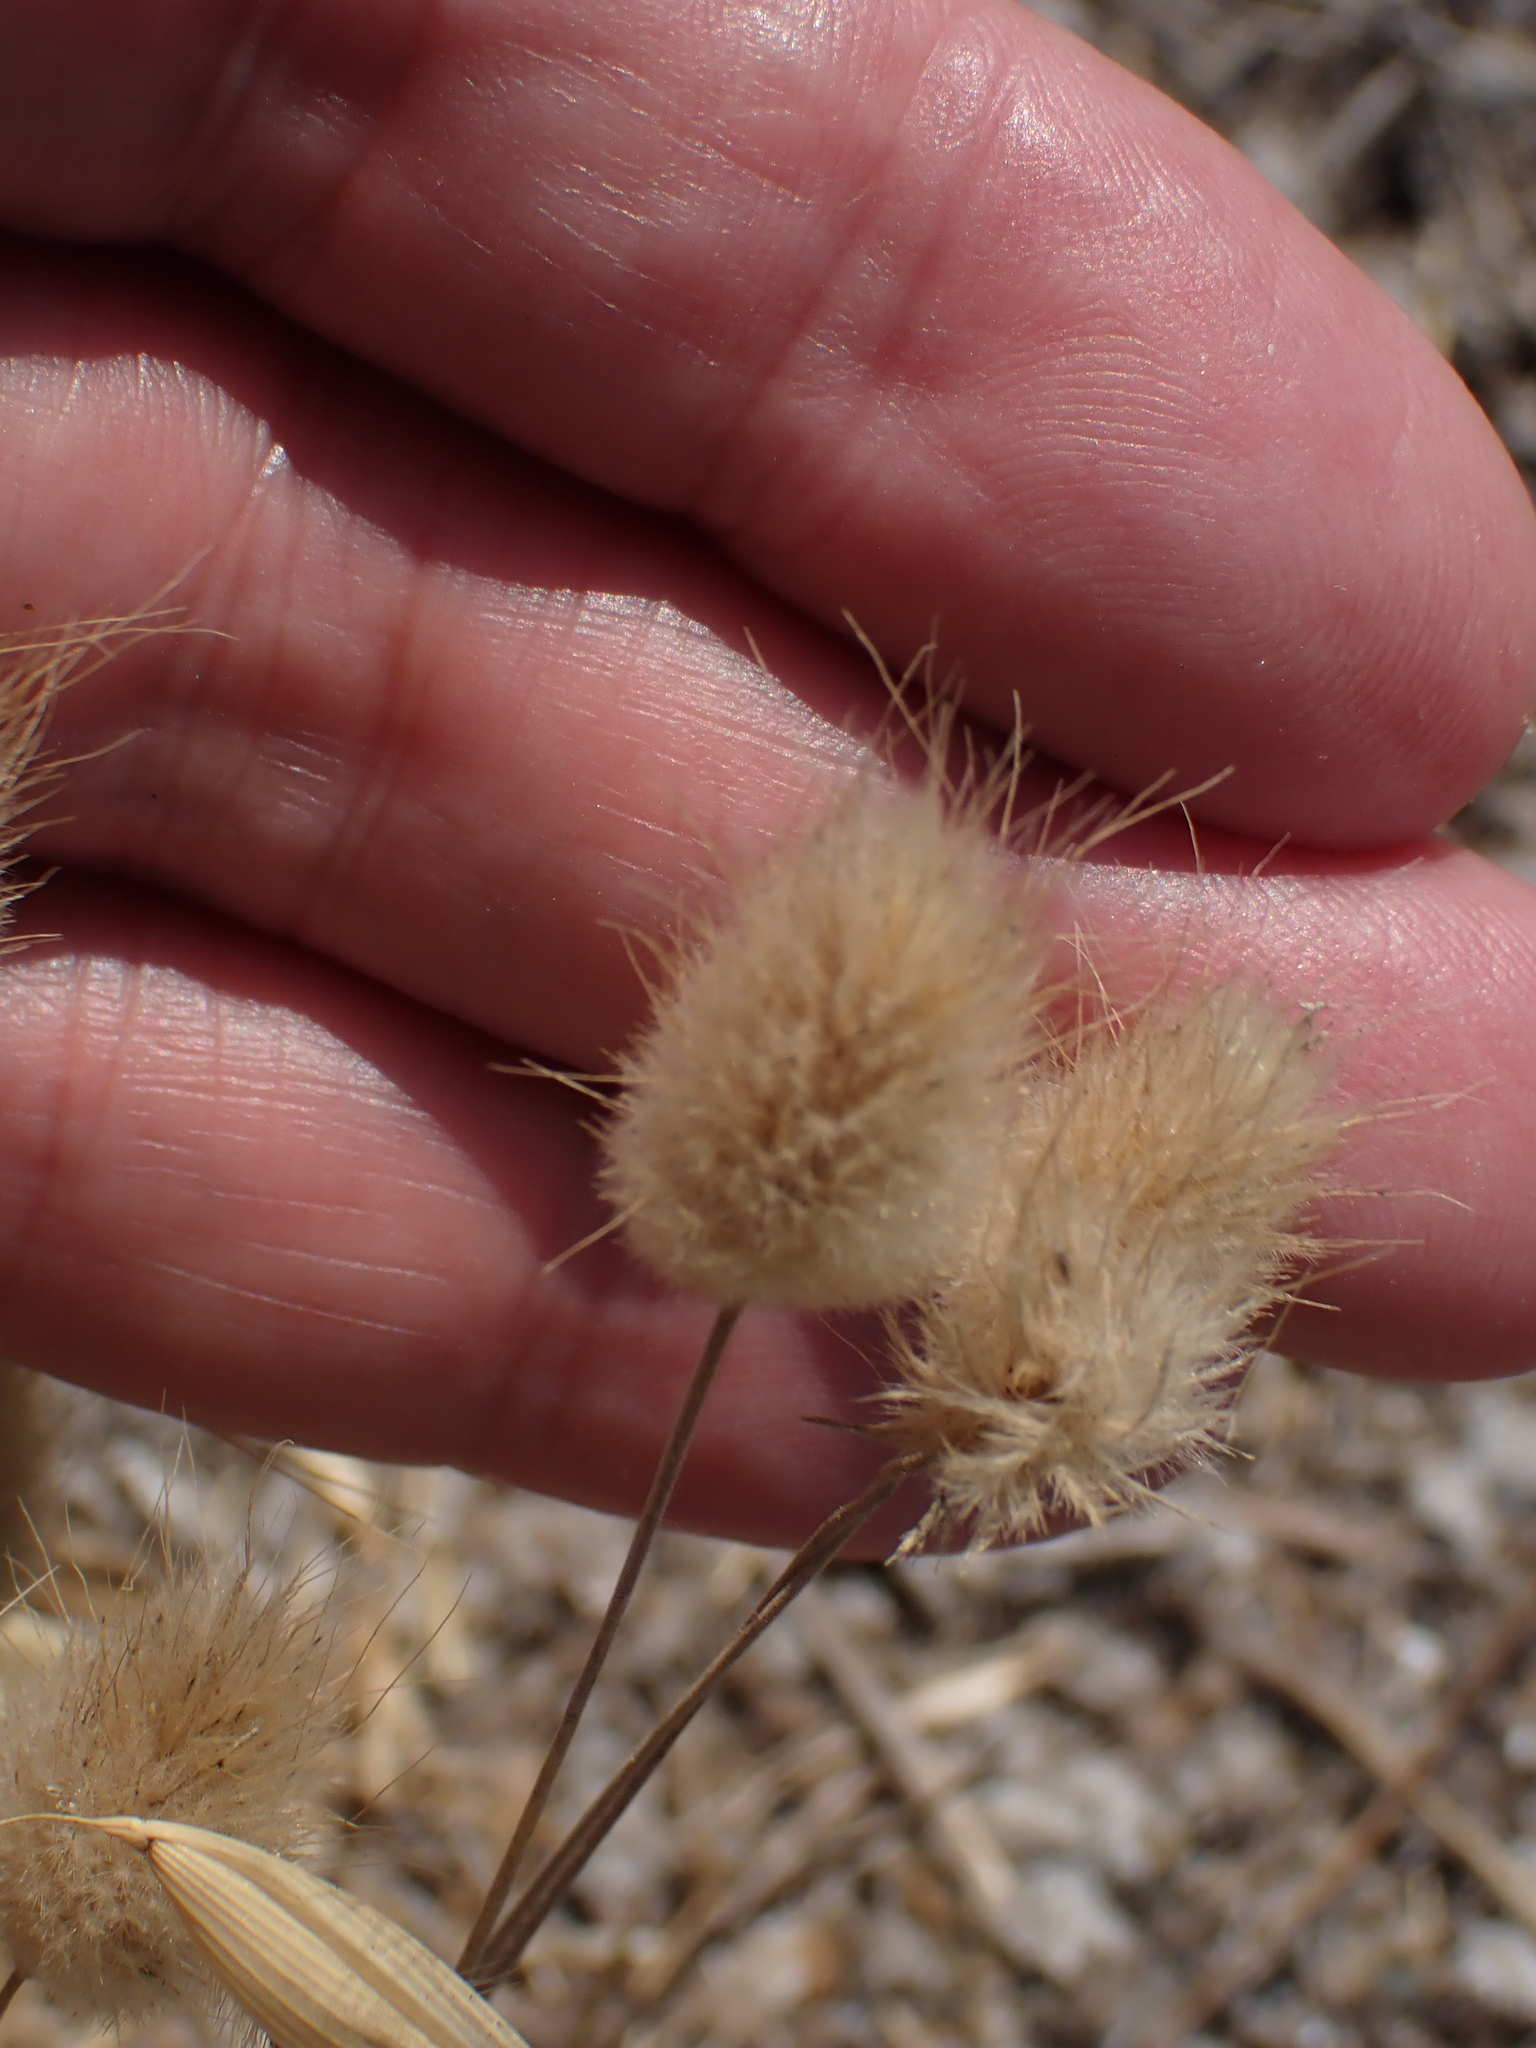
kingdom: Plantae
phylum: Tracheophyta
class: Liliopsida
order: Poales
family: Poaceae
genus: Lagurus
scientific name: Lagurus ovatus
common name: Hare's-tail
